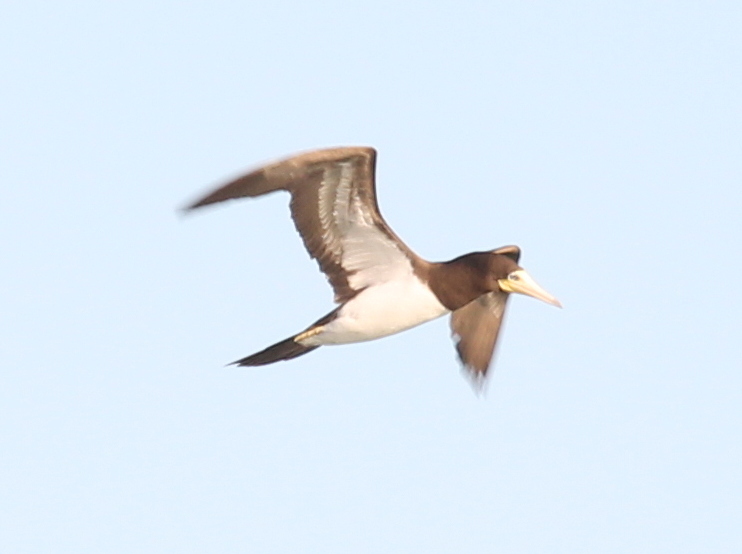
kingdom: Animalia
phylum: Chordata
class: Aves
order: Suliformes
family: Sulidae
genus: Sula
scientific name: Sula leucogaster
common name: Brown booby
